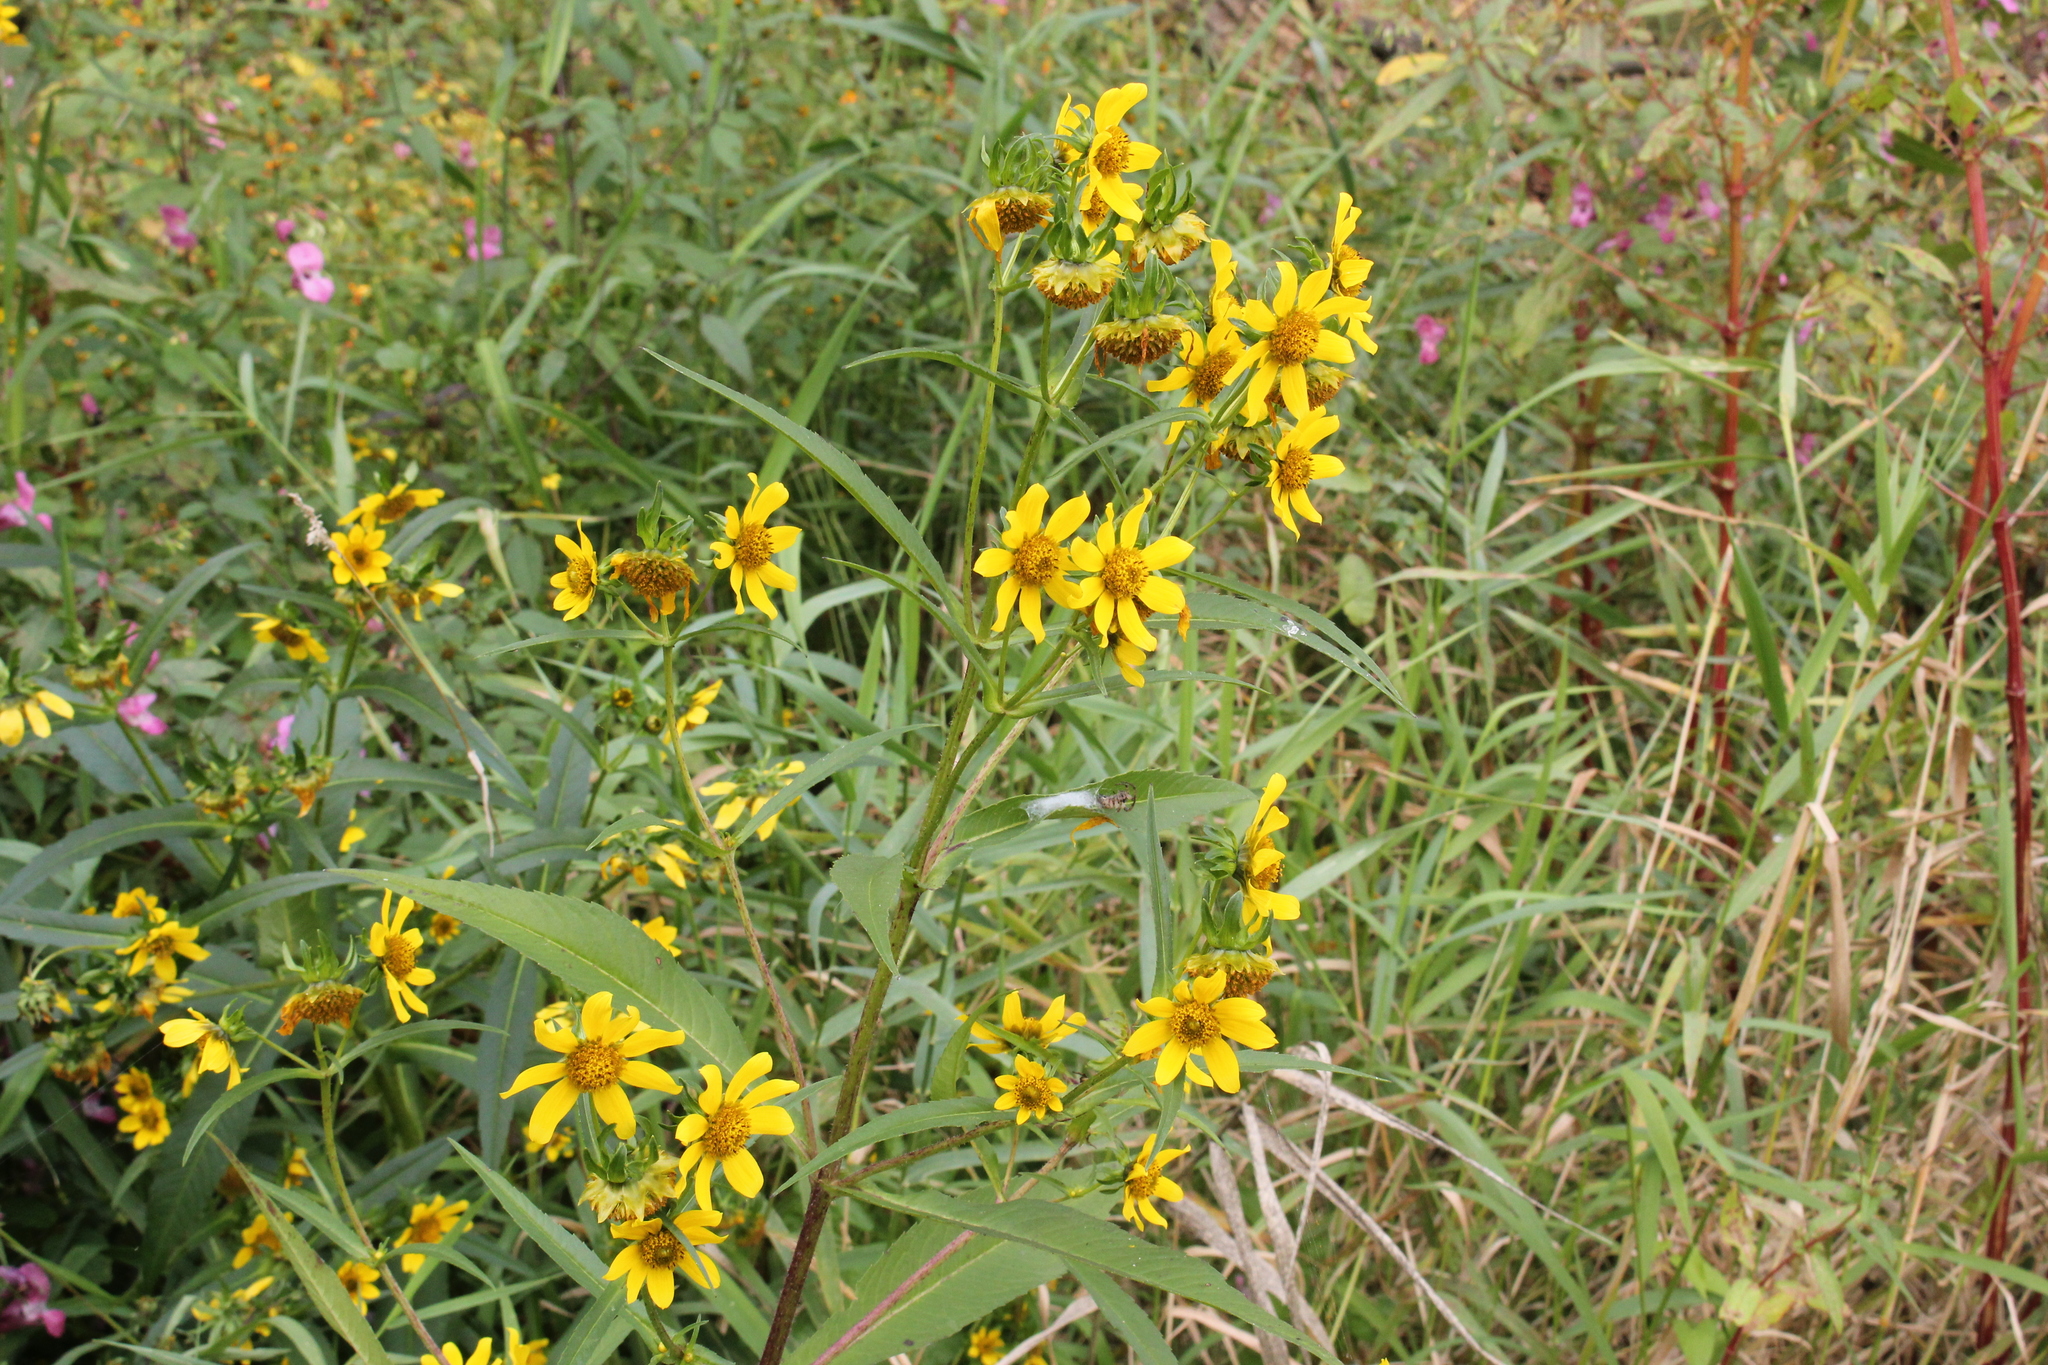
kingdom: Plantae
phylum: Tracheophyta
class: Magnoliopsida
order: Asterales
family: Asteraceae
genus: Bidens
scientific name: Bidens cernua
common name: Nodding bur-marigold
